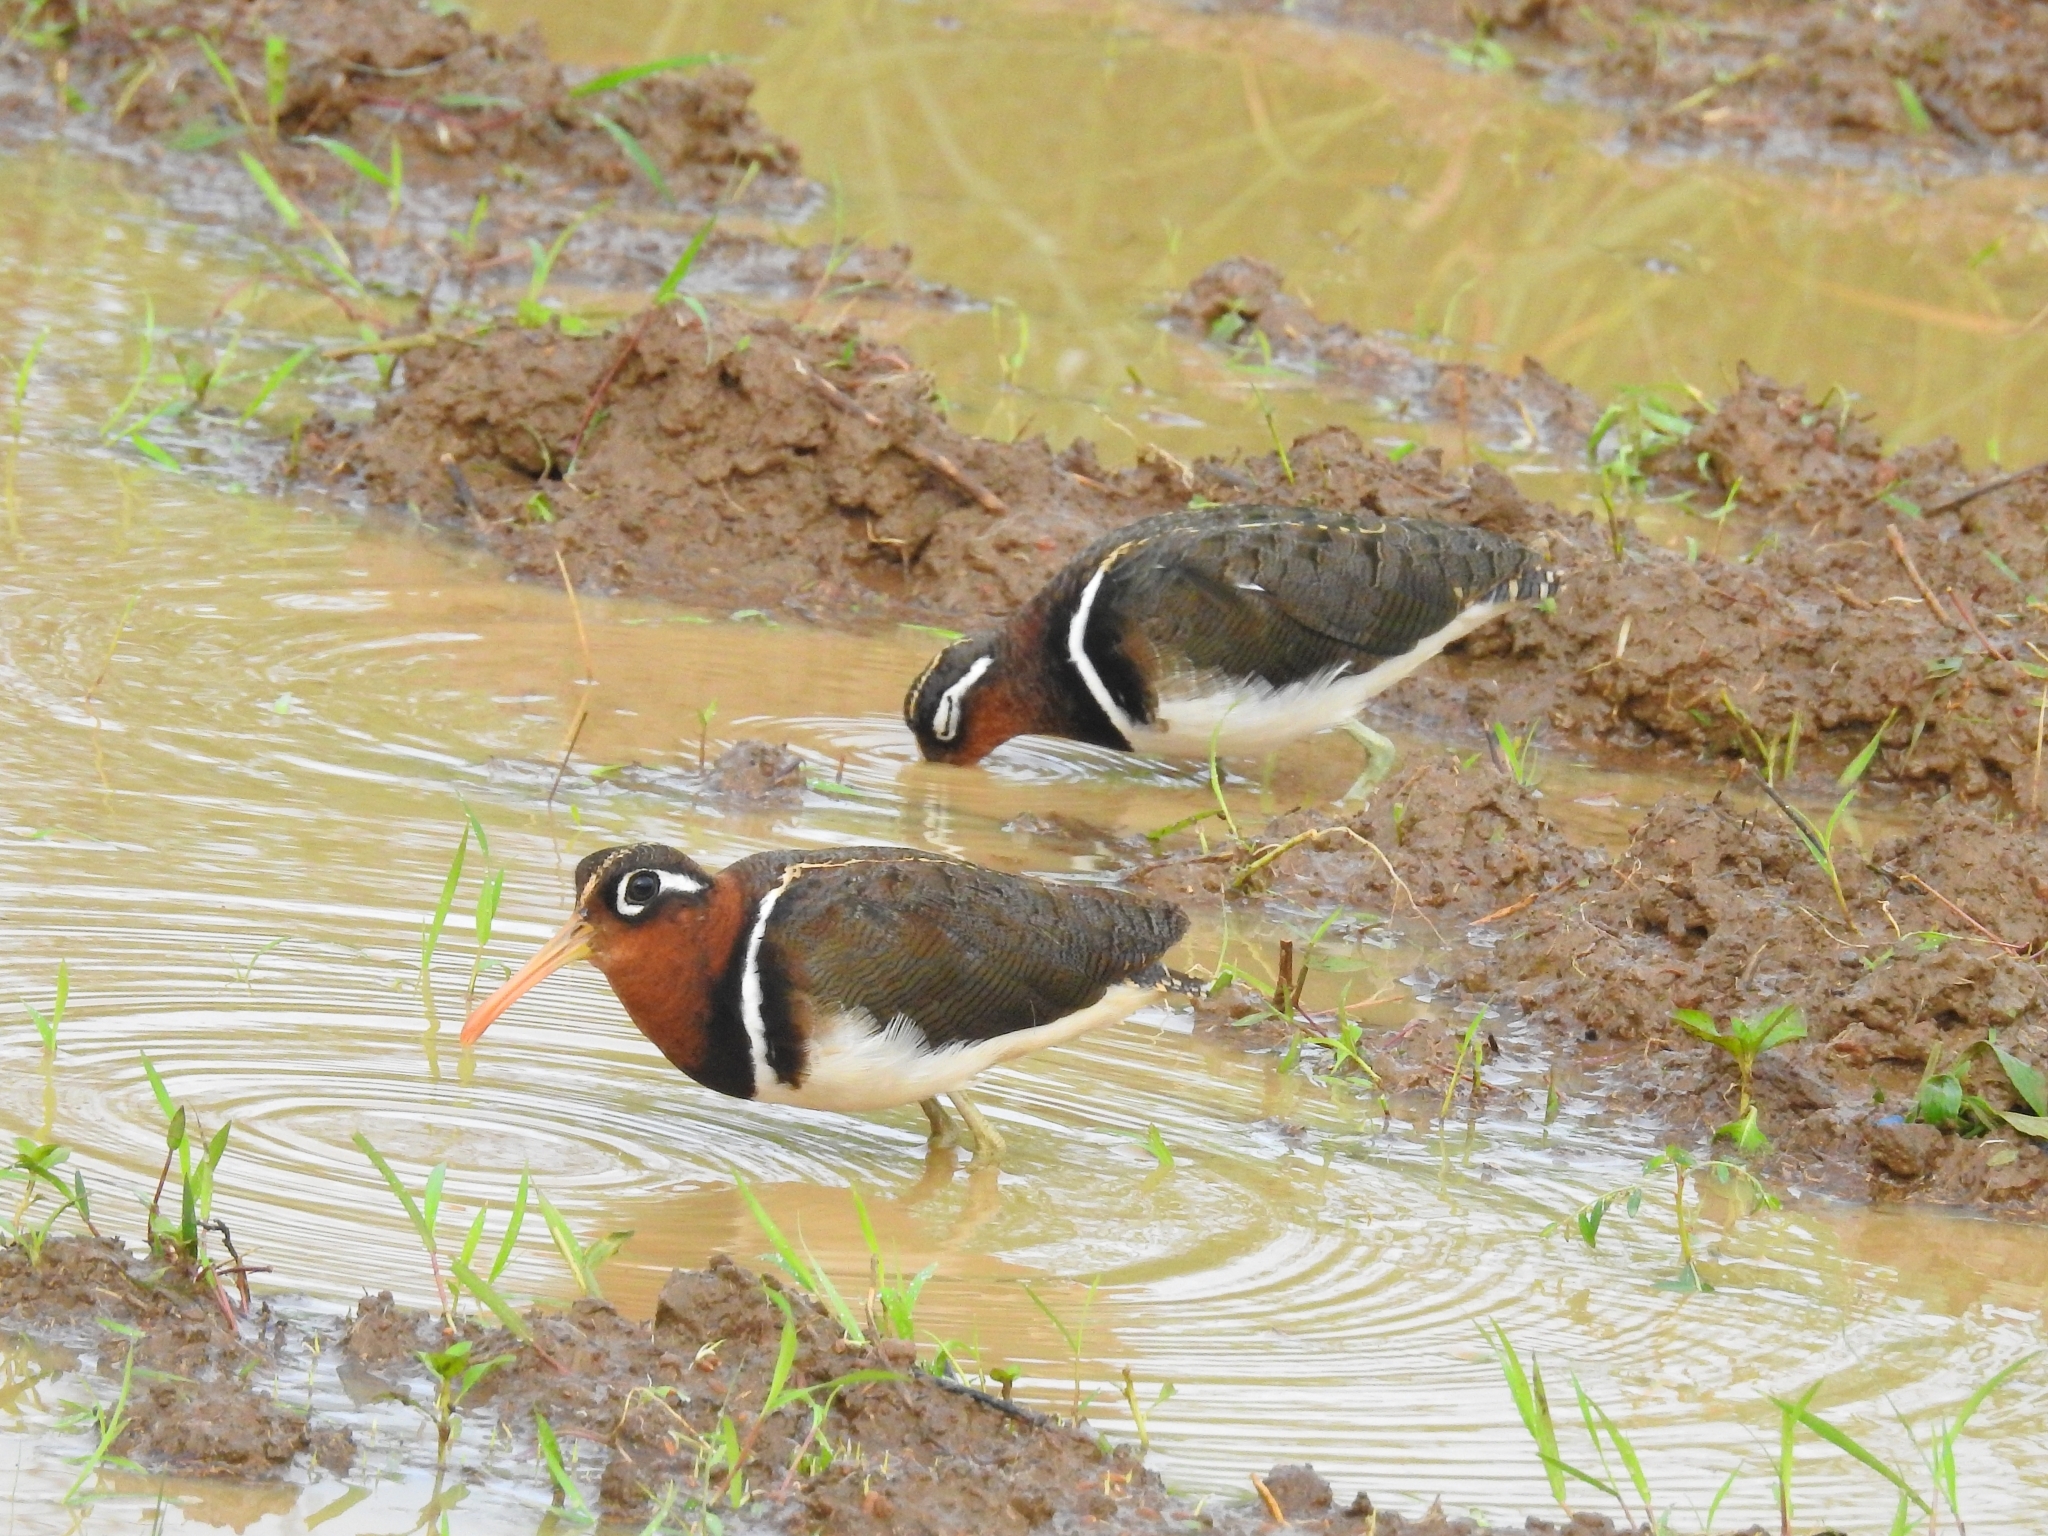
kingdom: Animalia
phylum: Chordata
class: Aves
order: Charadriiformes
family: Rostratulidae
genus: Rostratula
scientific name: Rostratula benghalensis
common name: Greater painted-snipe
